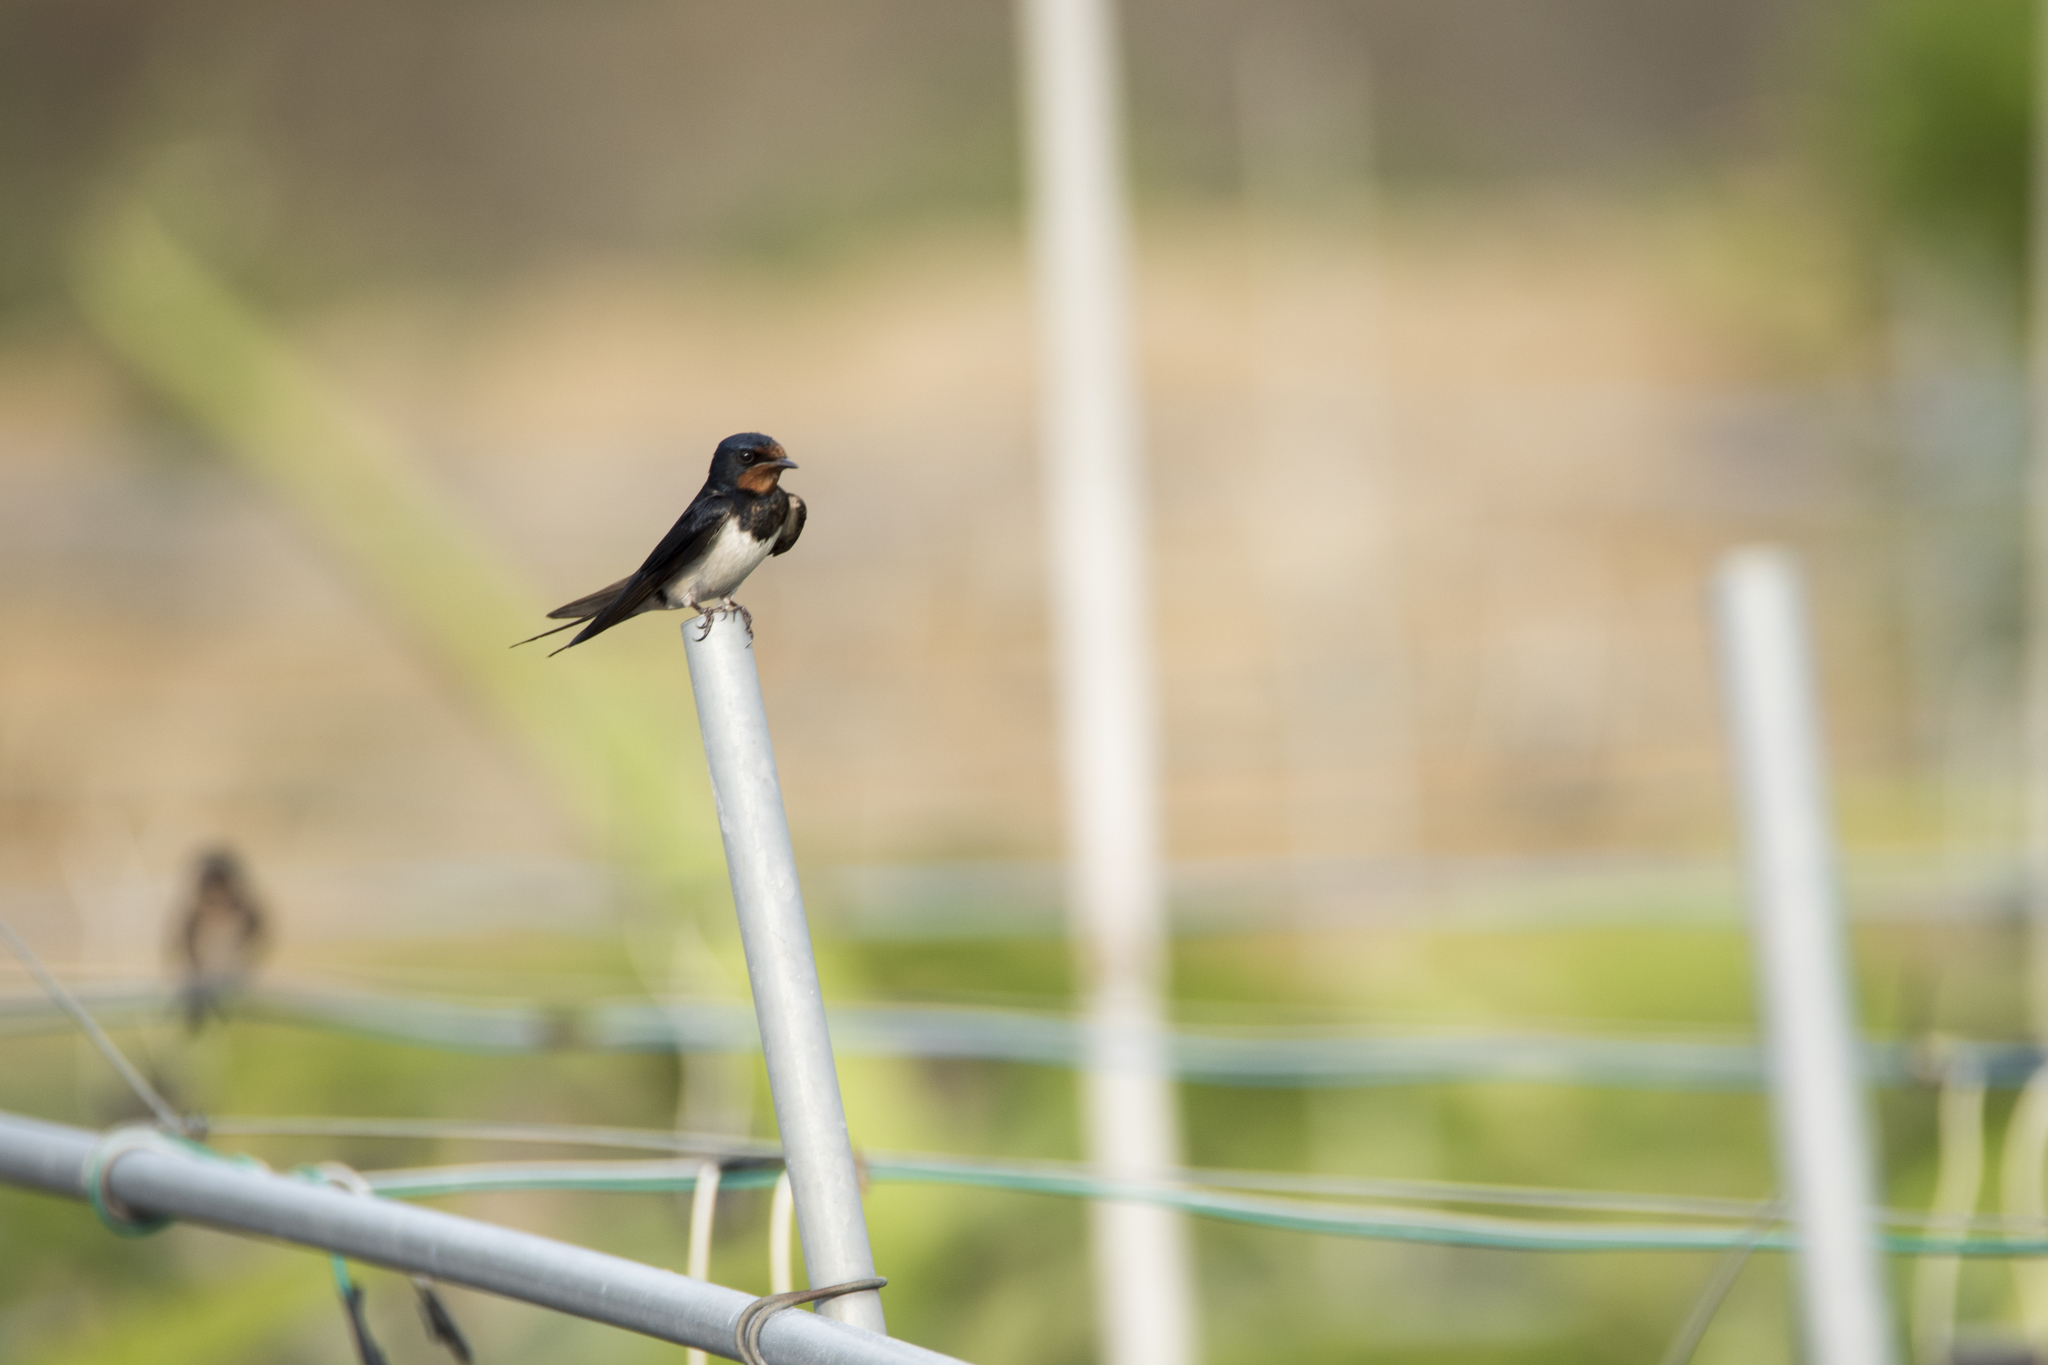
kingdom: Animalia
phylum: Chordata
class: Aves
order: Passeriformes
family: Hirundinidae
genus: Hirundo
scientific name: Hirundo rustica
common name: Barn swallow
